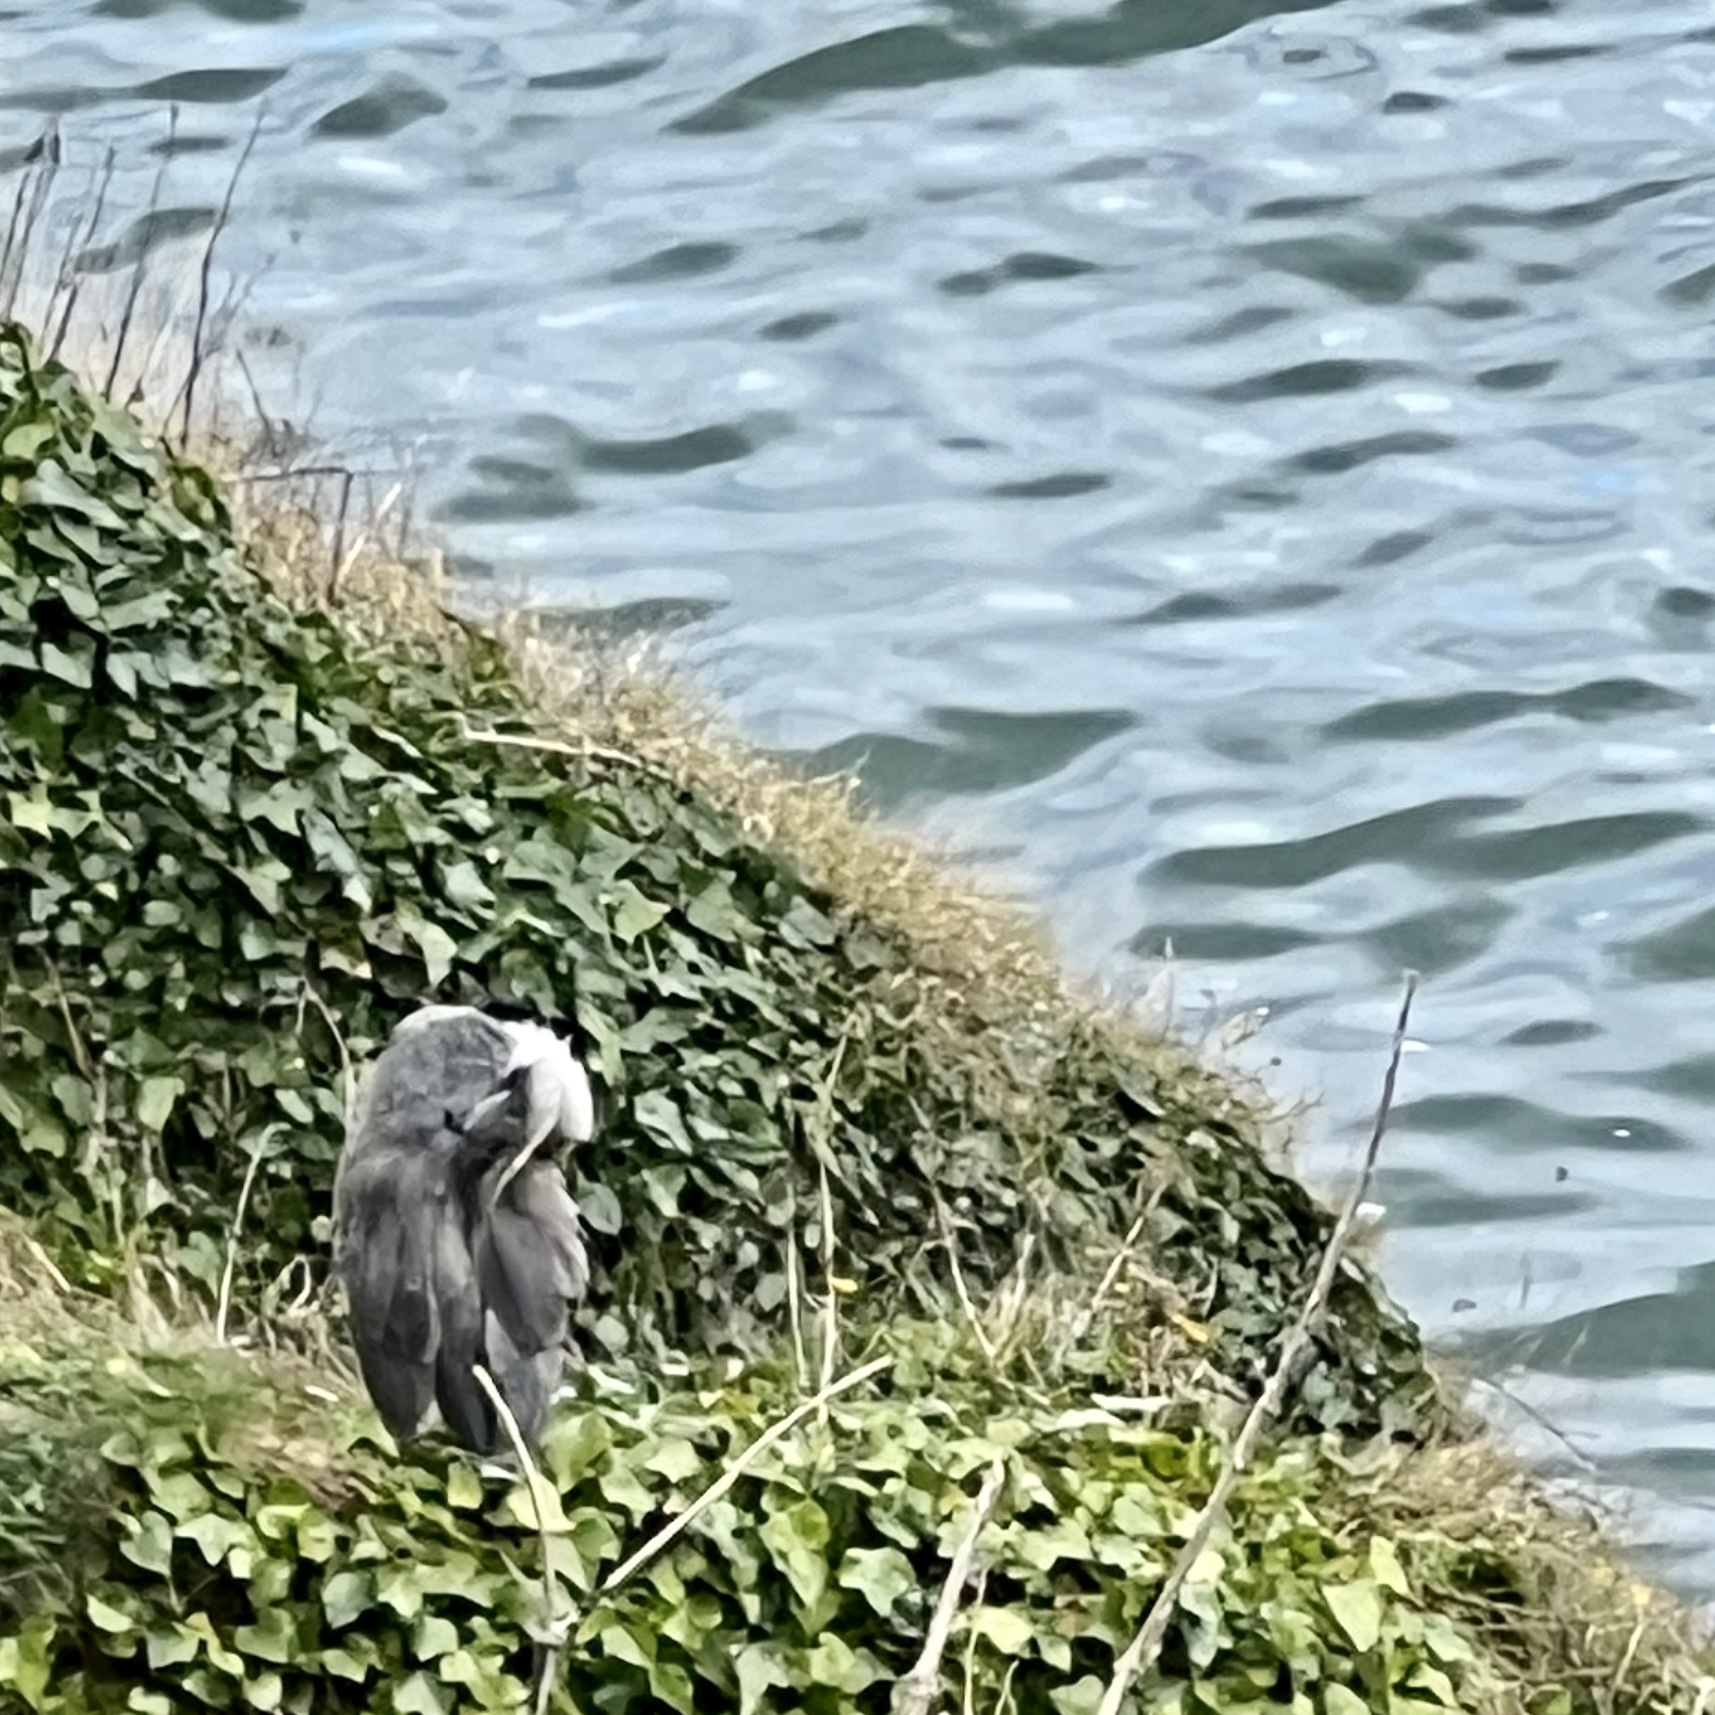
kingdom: Animalia
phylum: Chordata
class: Aves
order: Pelecaniformes
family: Ardeidae
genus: Ardea
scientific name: Ardea cinerea
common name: Grey heron
